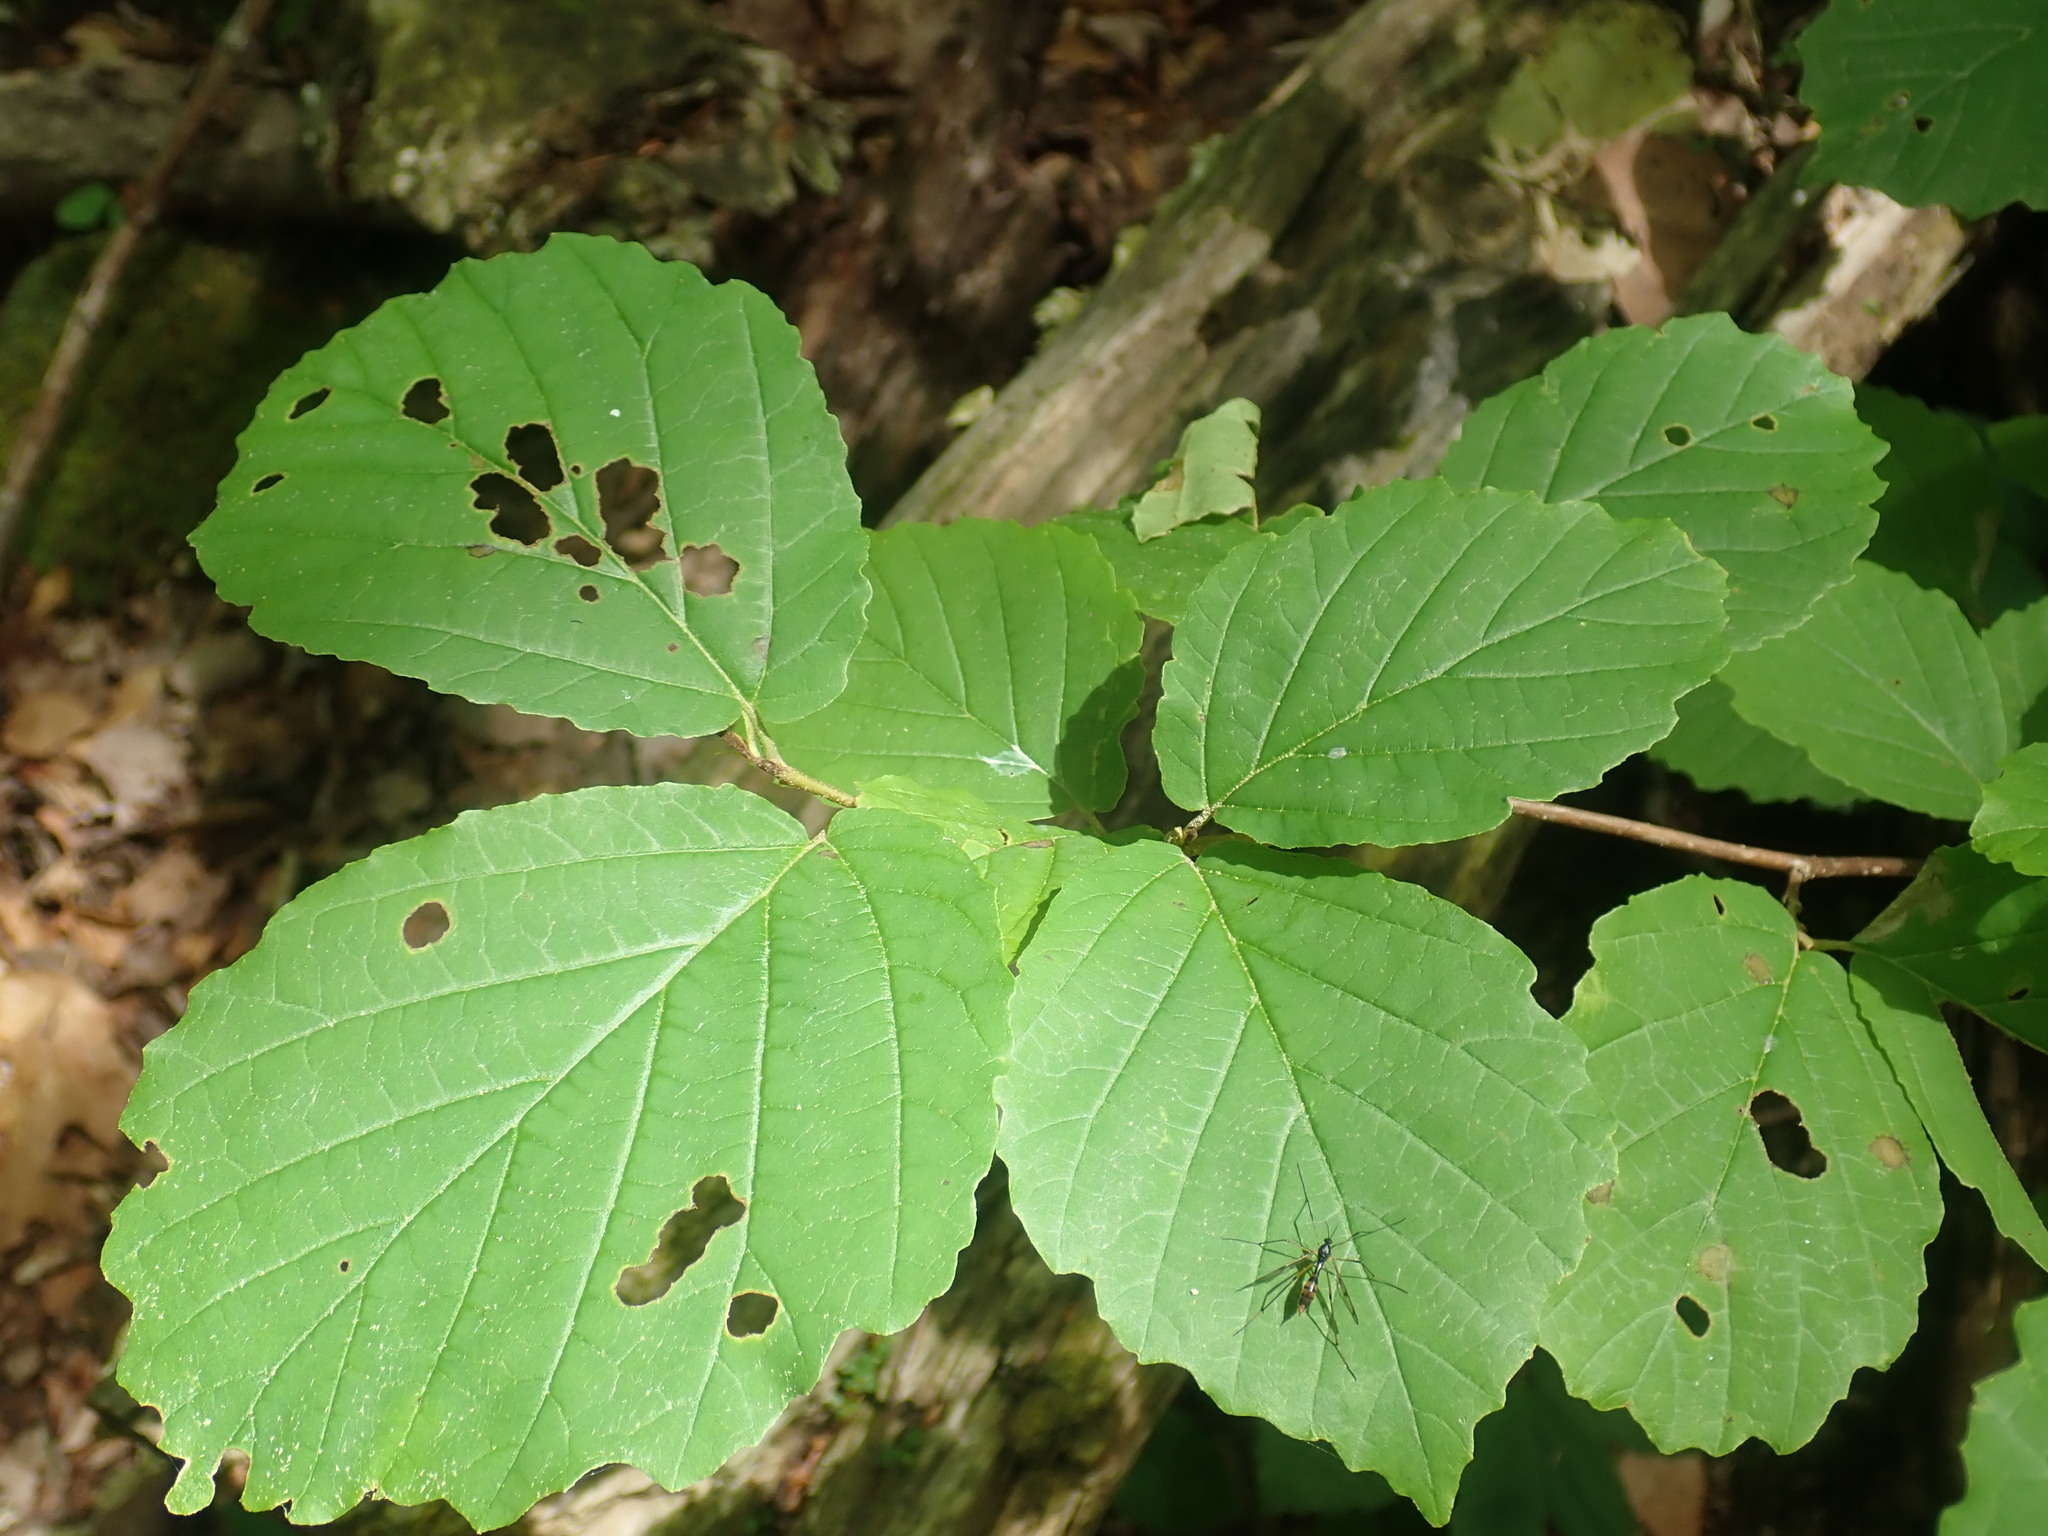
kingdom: Plantae
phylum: Tracheophyta
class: Magnoliopsida
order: Saxifragales
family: Hamamelidaceae
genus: Hamamelis
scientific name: Hamamelis virginiana
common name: Witch-hazel
